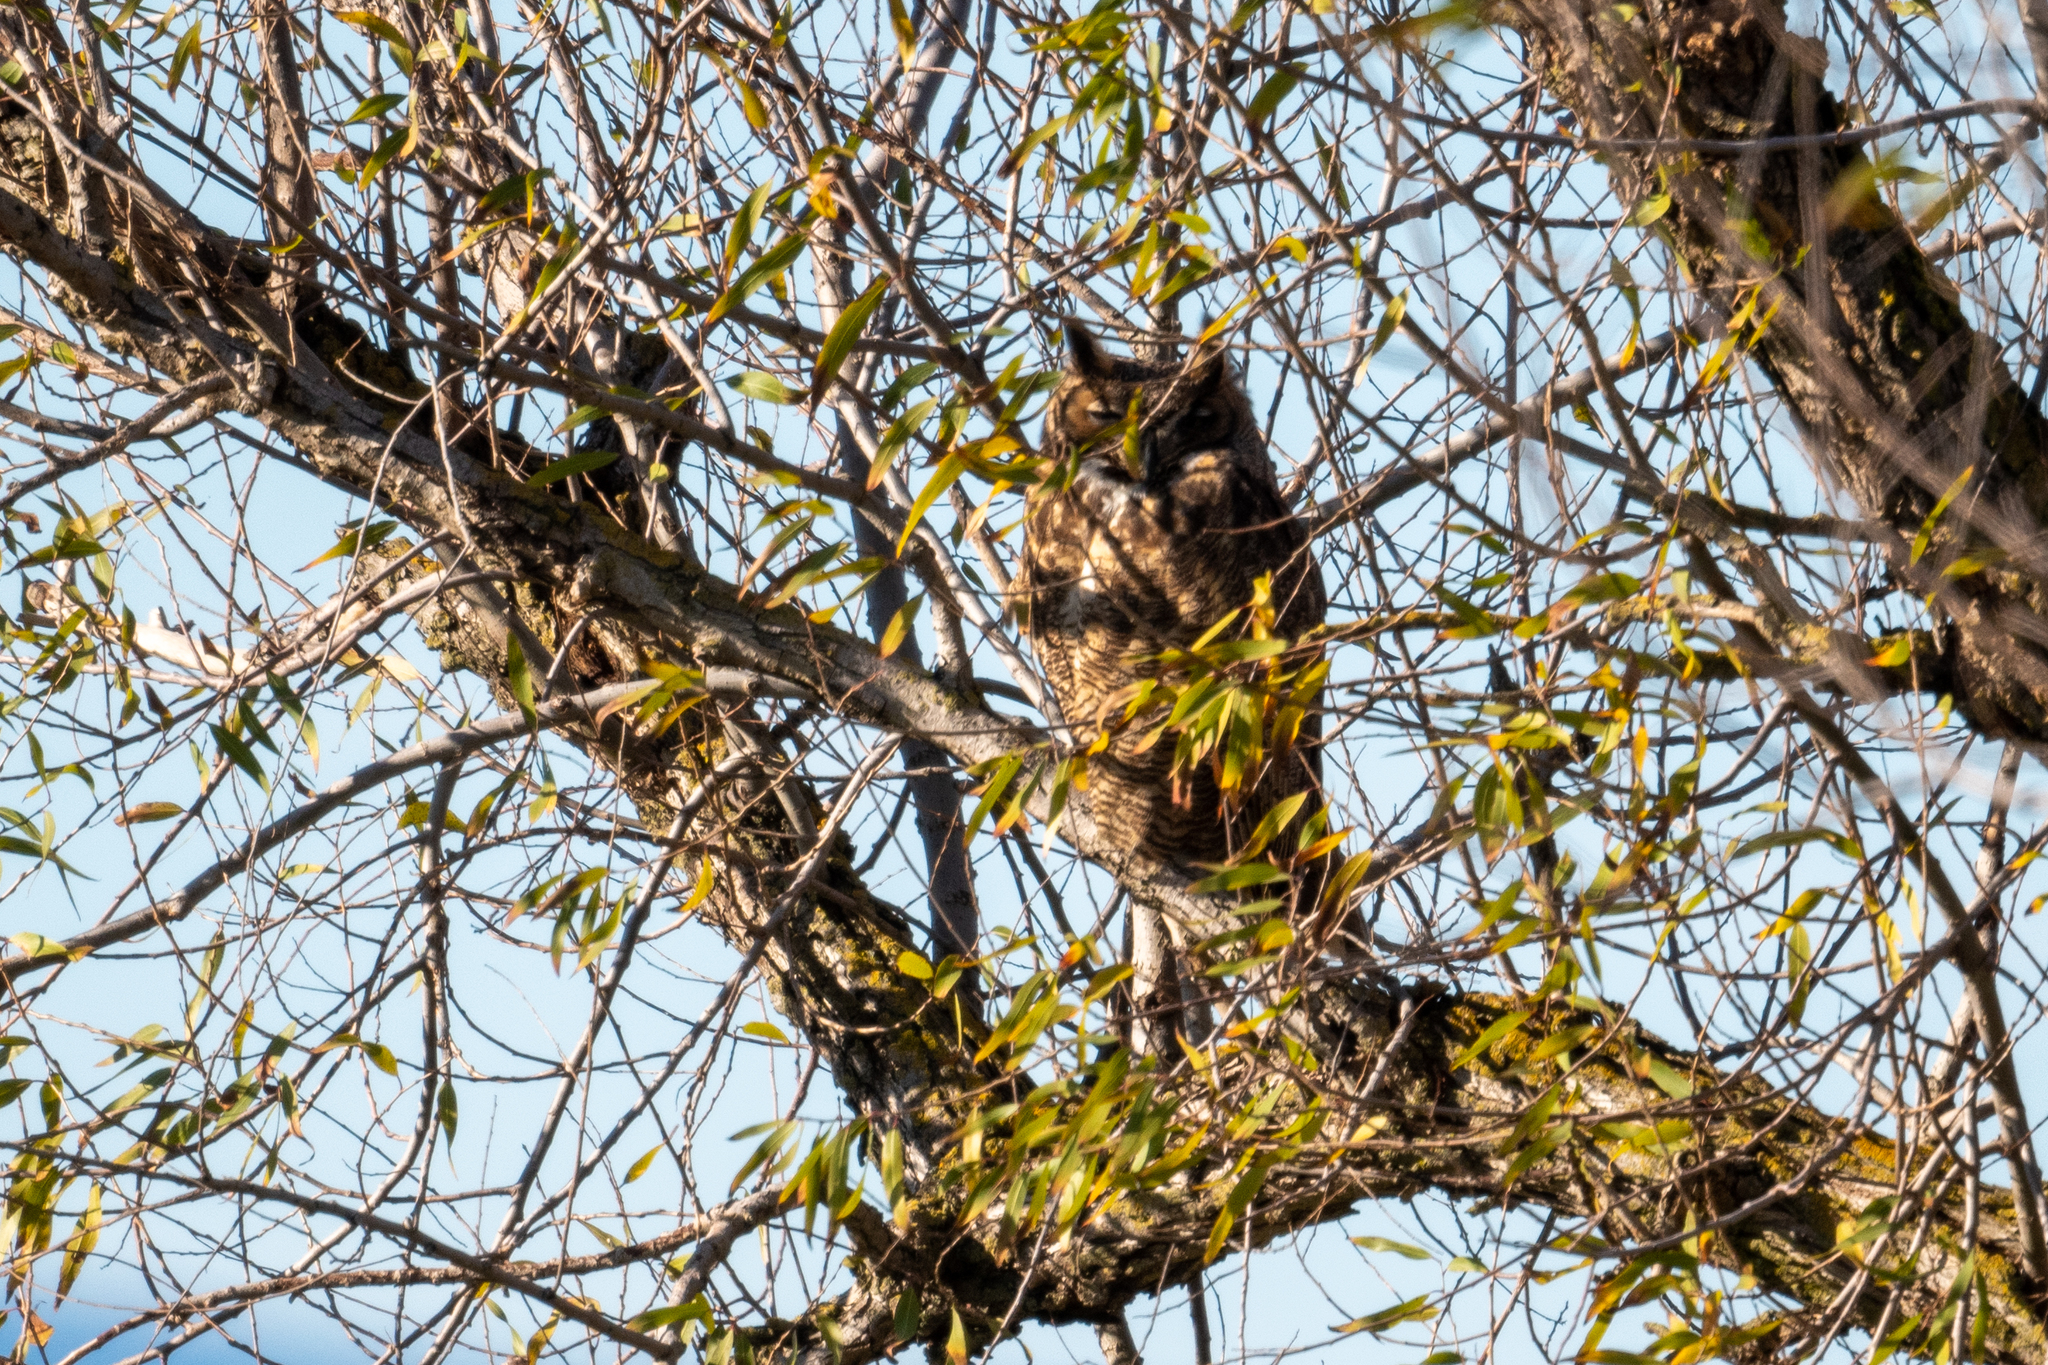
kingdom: Animalia
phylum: Chordata
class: Aves
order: Strigiformes
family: Strigidae
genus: Bubo
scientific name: Bubo virginianus
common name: Great horned owl
